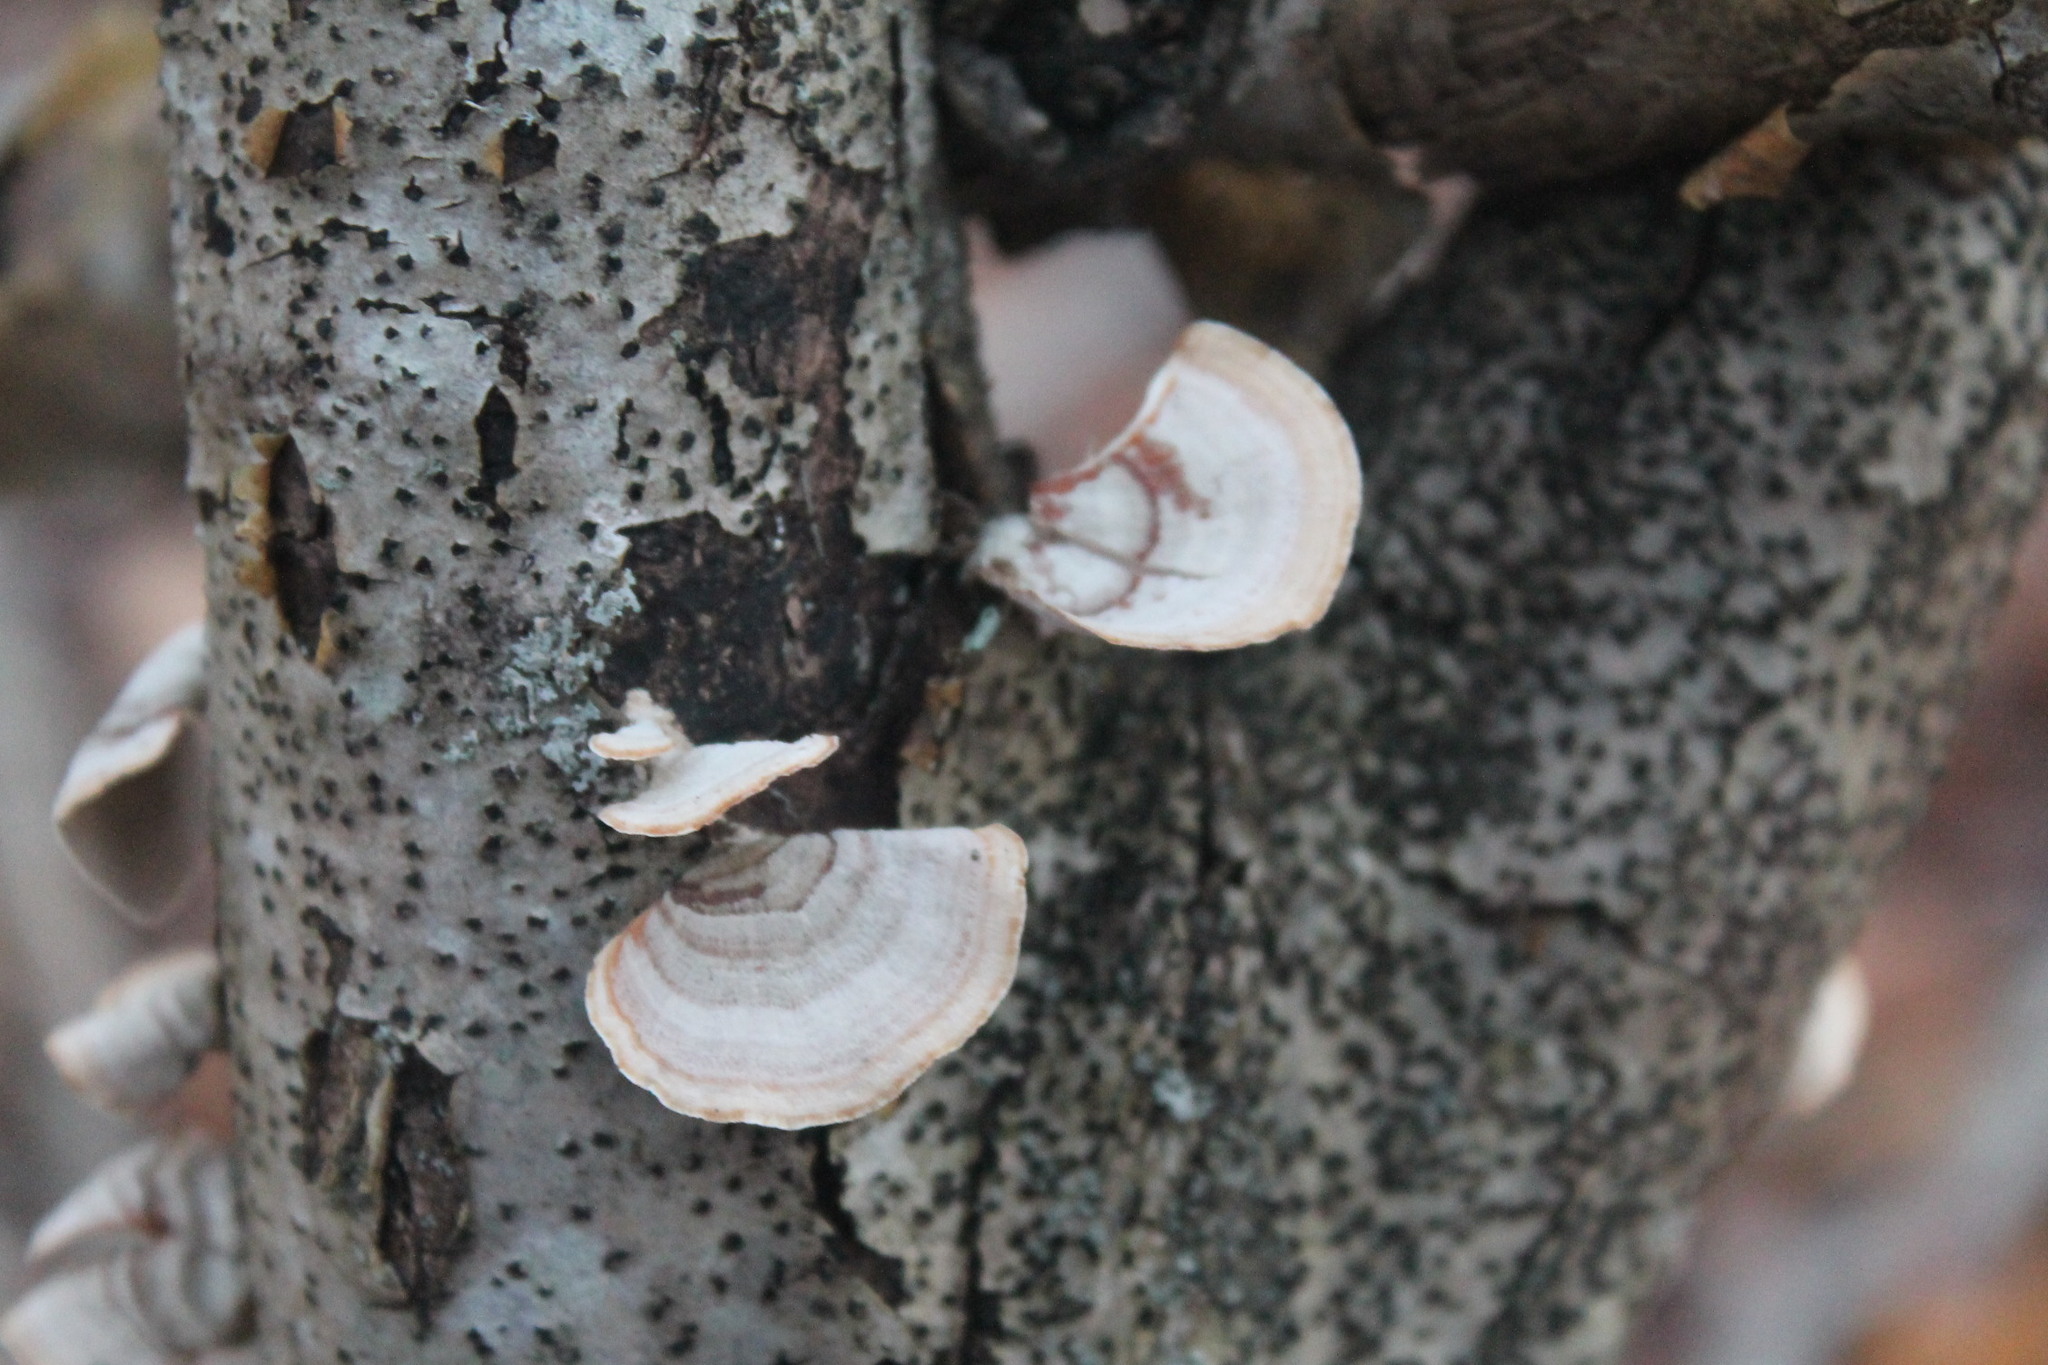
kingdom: Fungi
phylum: Basidiomycota
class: Agaricomycetes
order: Russulales
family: Stereaceae
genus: Stereum
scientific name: Stereum lobatum
